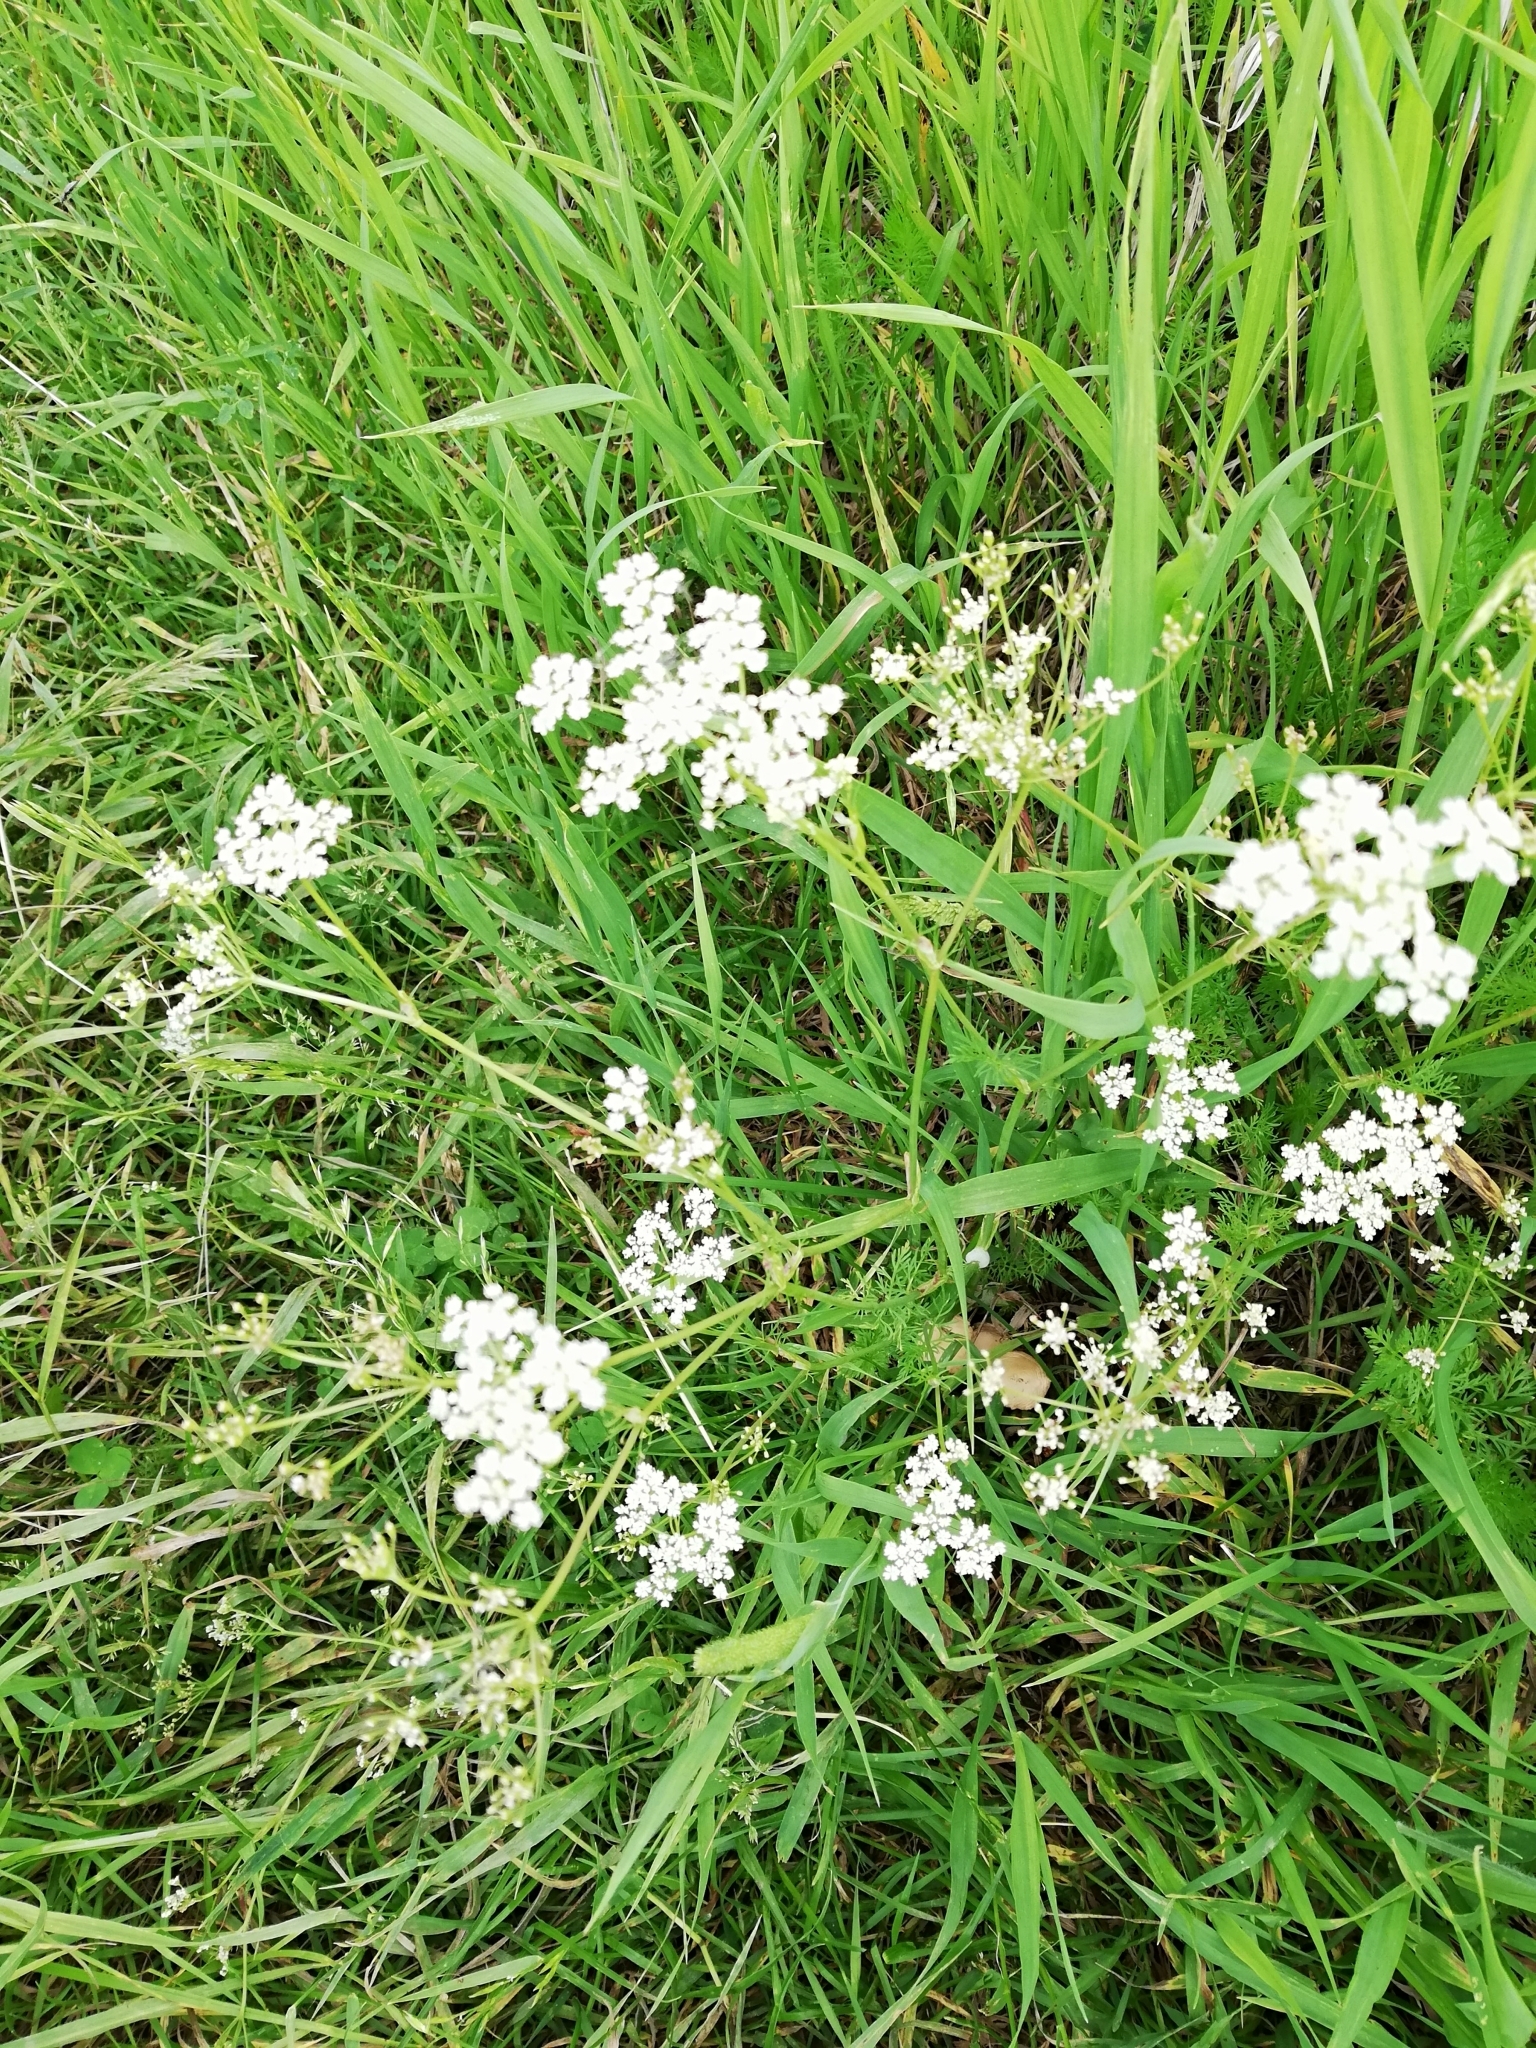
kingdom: Plantae
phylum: Tracheophyta
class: Magnoliopsida
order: Apiales
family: Apiaceae
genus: Carum
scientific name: Carum carvi
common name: Caraway
